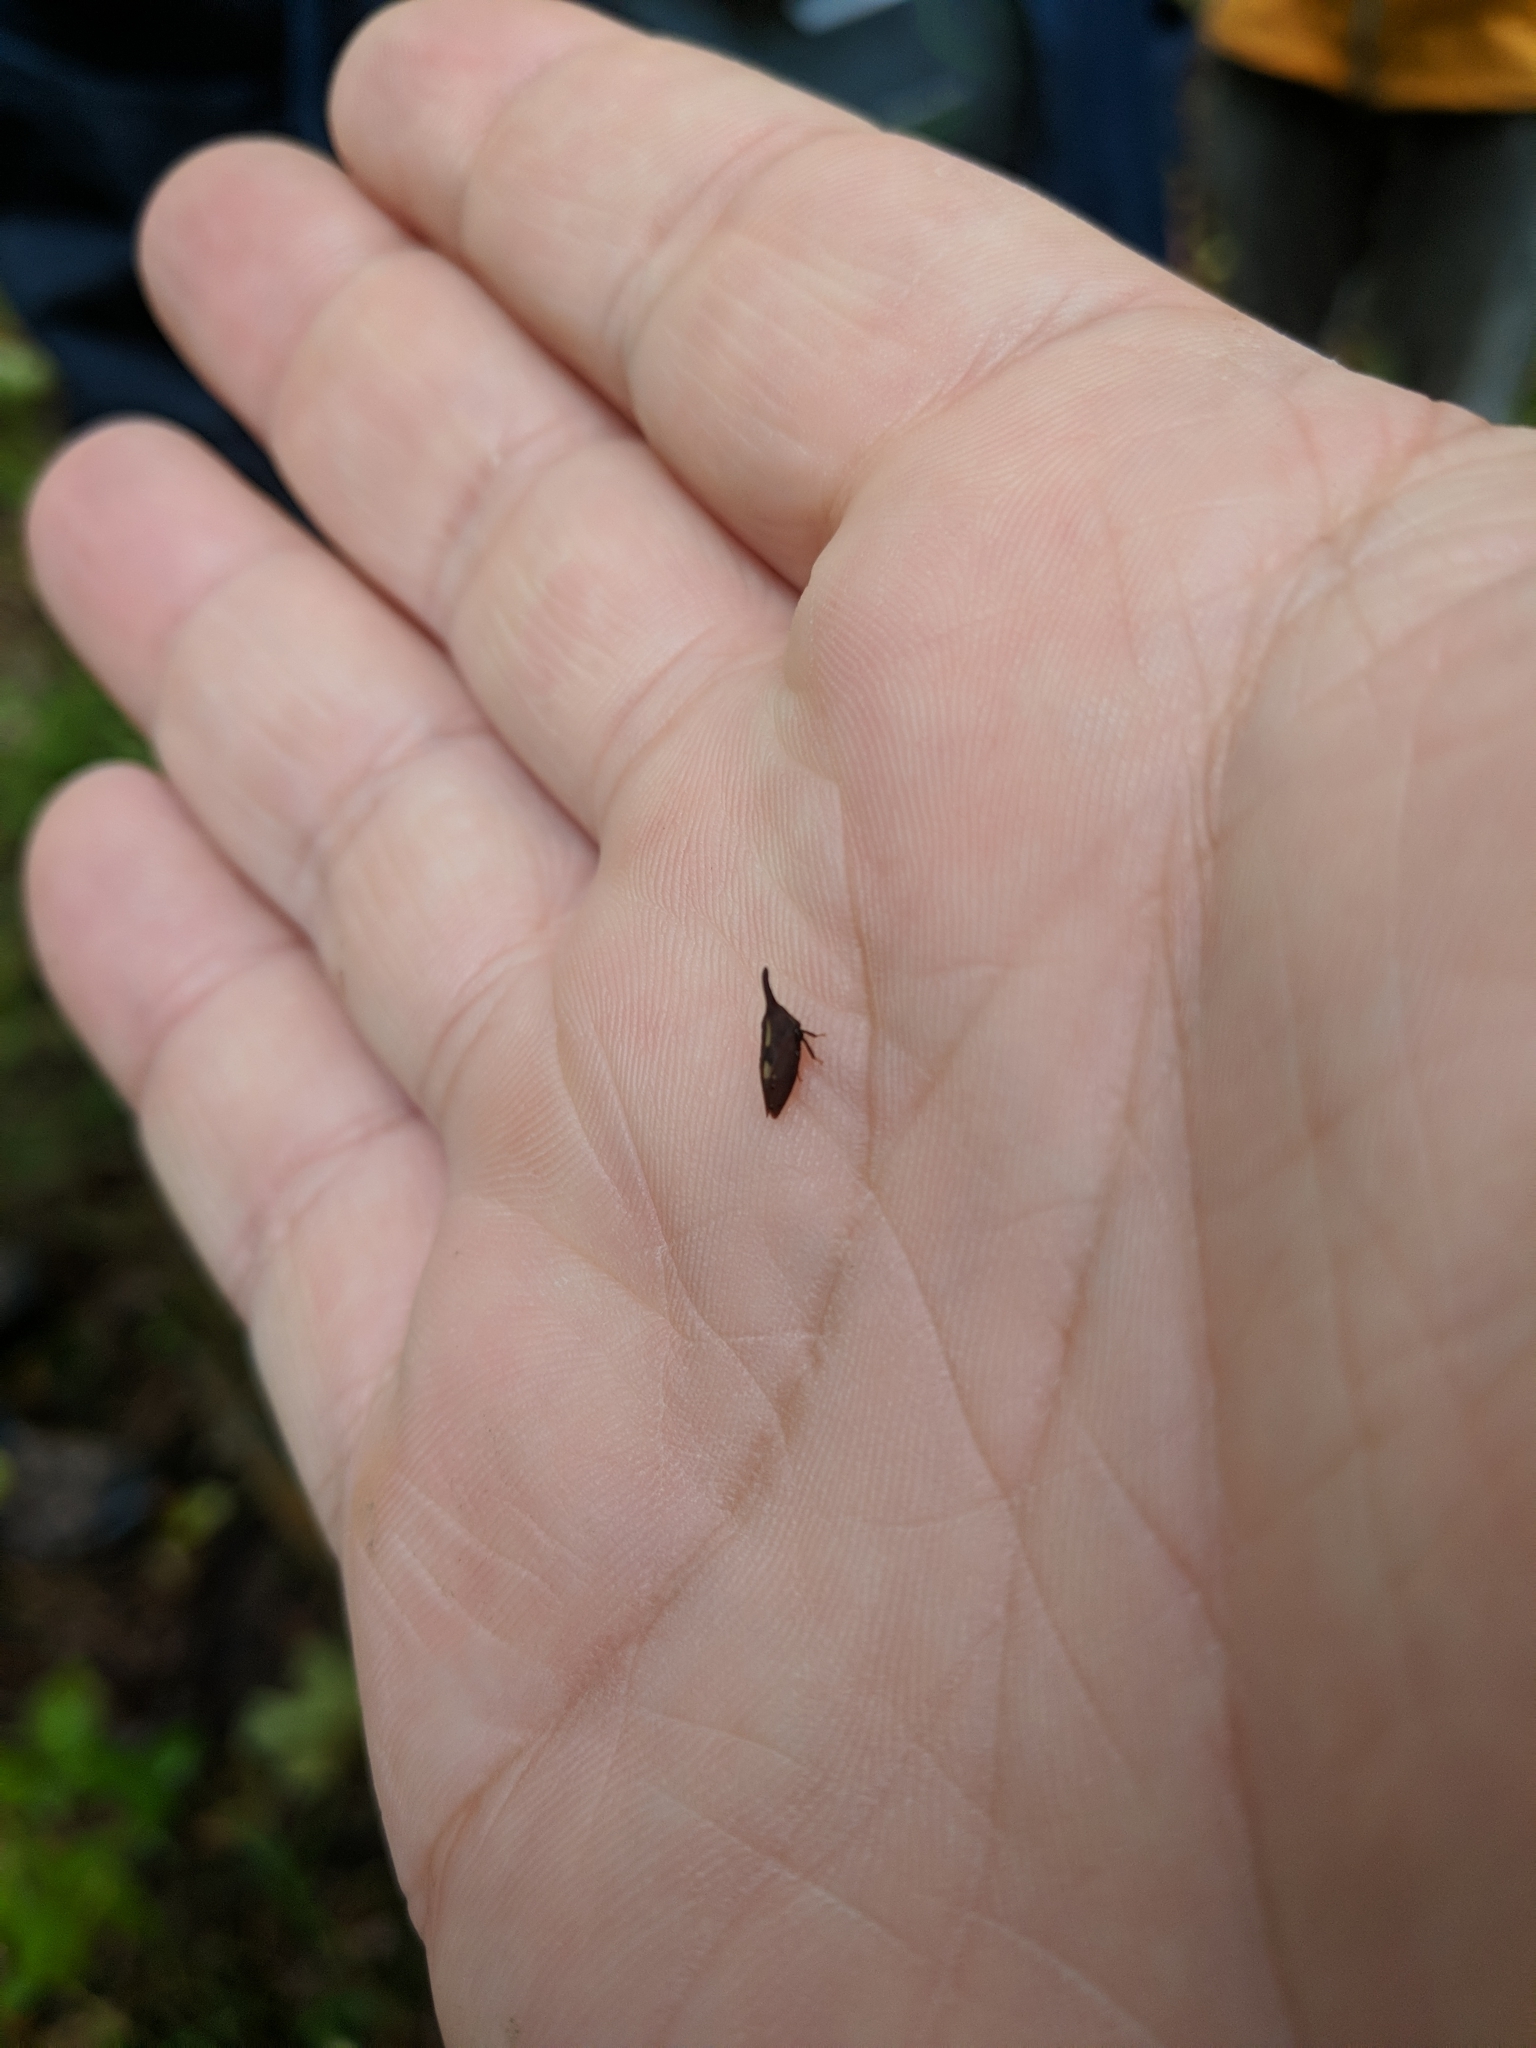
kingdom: Animalia
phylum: Arthropoda
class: Insecta
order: Hemiptera
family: Membracidae
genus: Enchenopa
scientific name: Enchenopa
